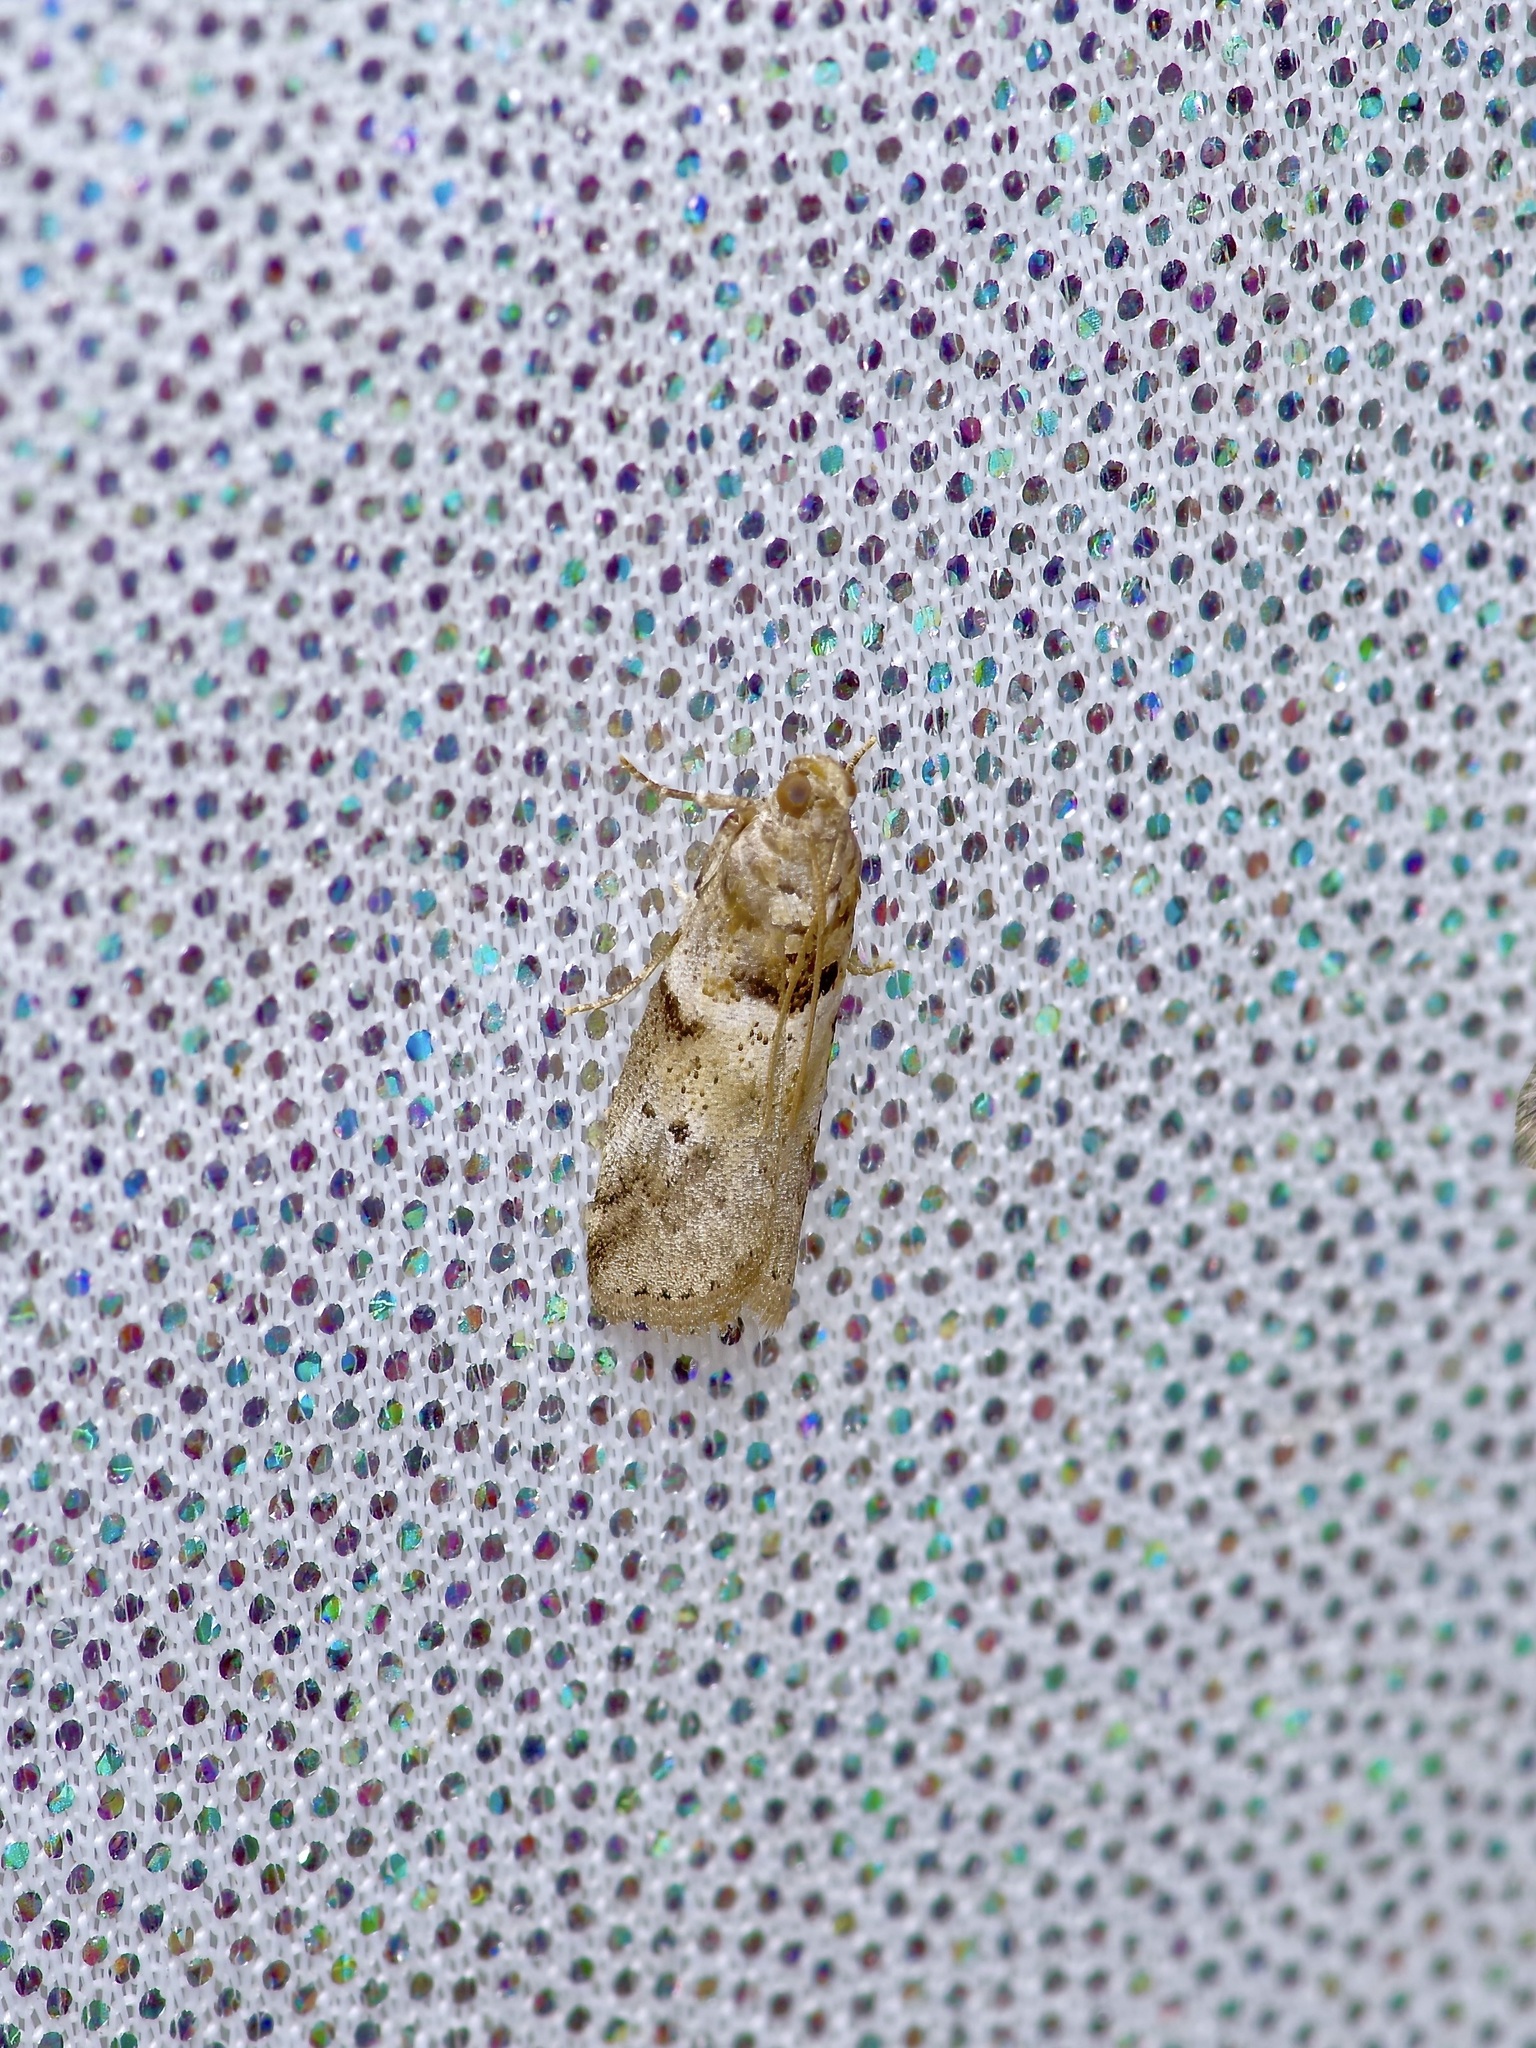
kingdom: Animalia
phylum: Arthropoda
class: Insecta
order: Lepidoptera
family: Pyralidae
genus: Salebriaria
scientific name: Salebriaria annulosella
